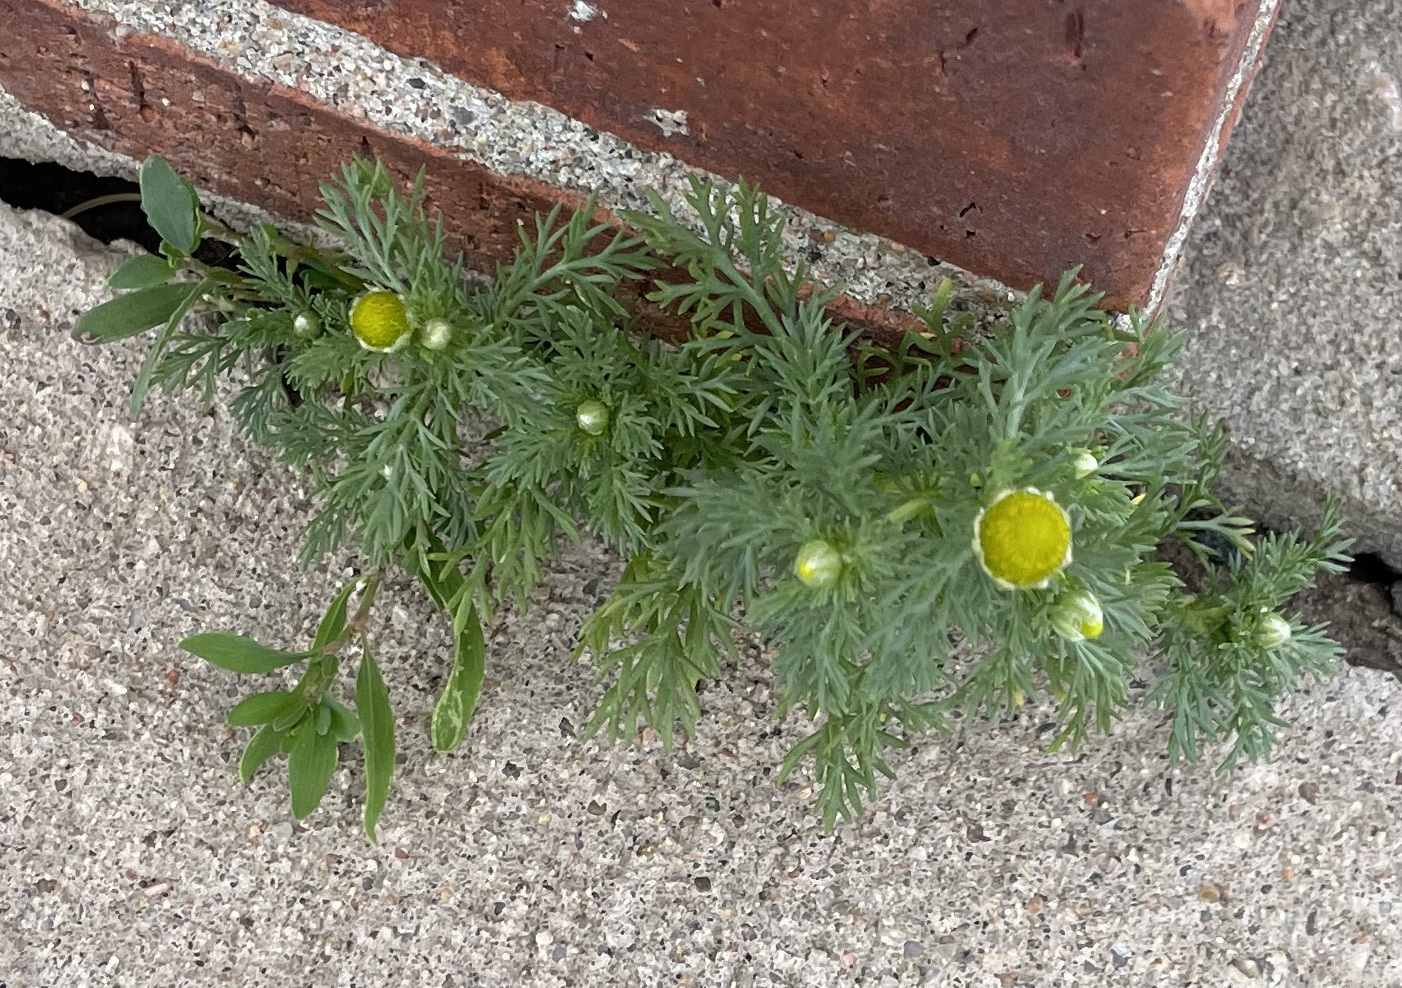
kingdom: Plantae
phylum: Tracheophyta
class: Magnoliopsida
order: Asterales
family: Asteraceae
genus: Matricaria
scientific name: Matricaria discoidea
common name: Disc mayweed
